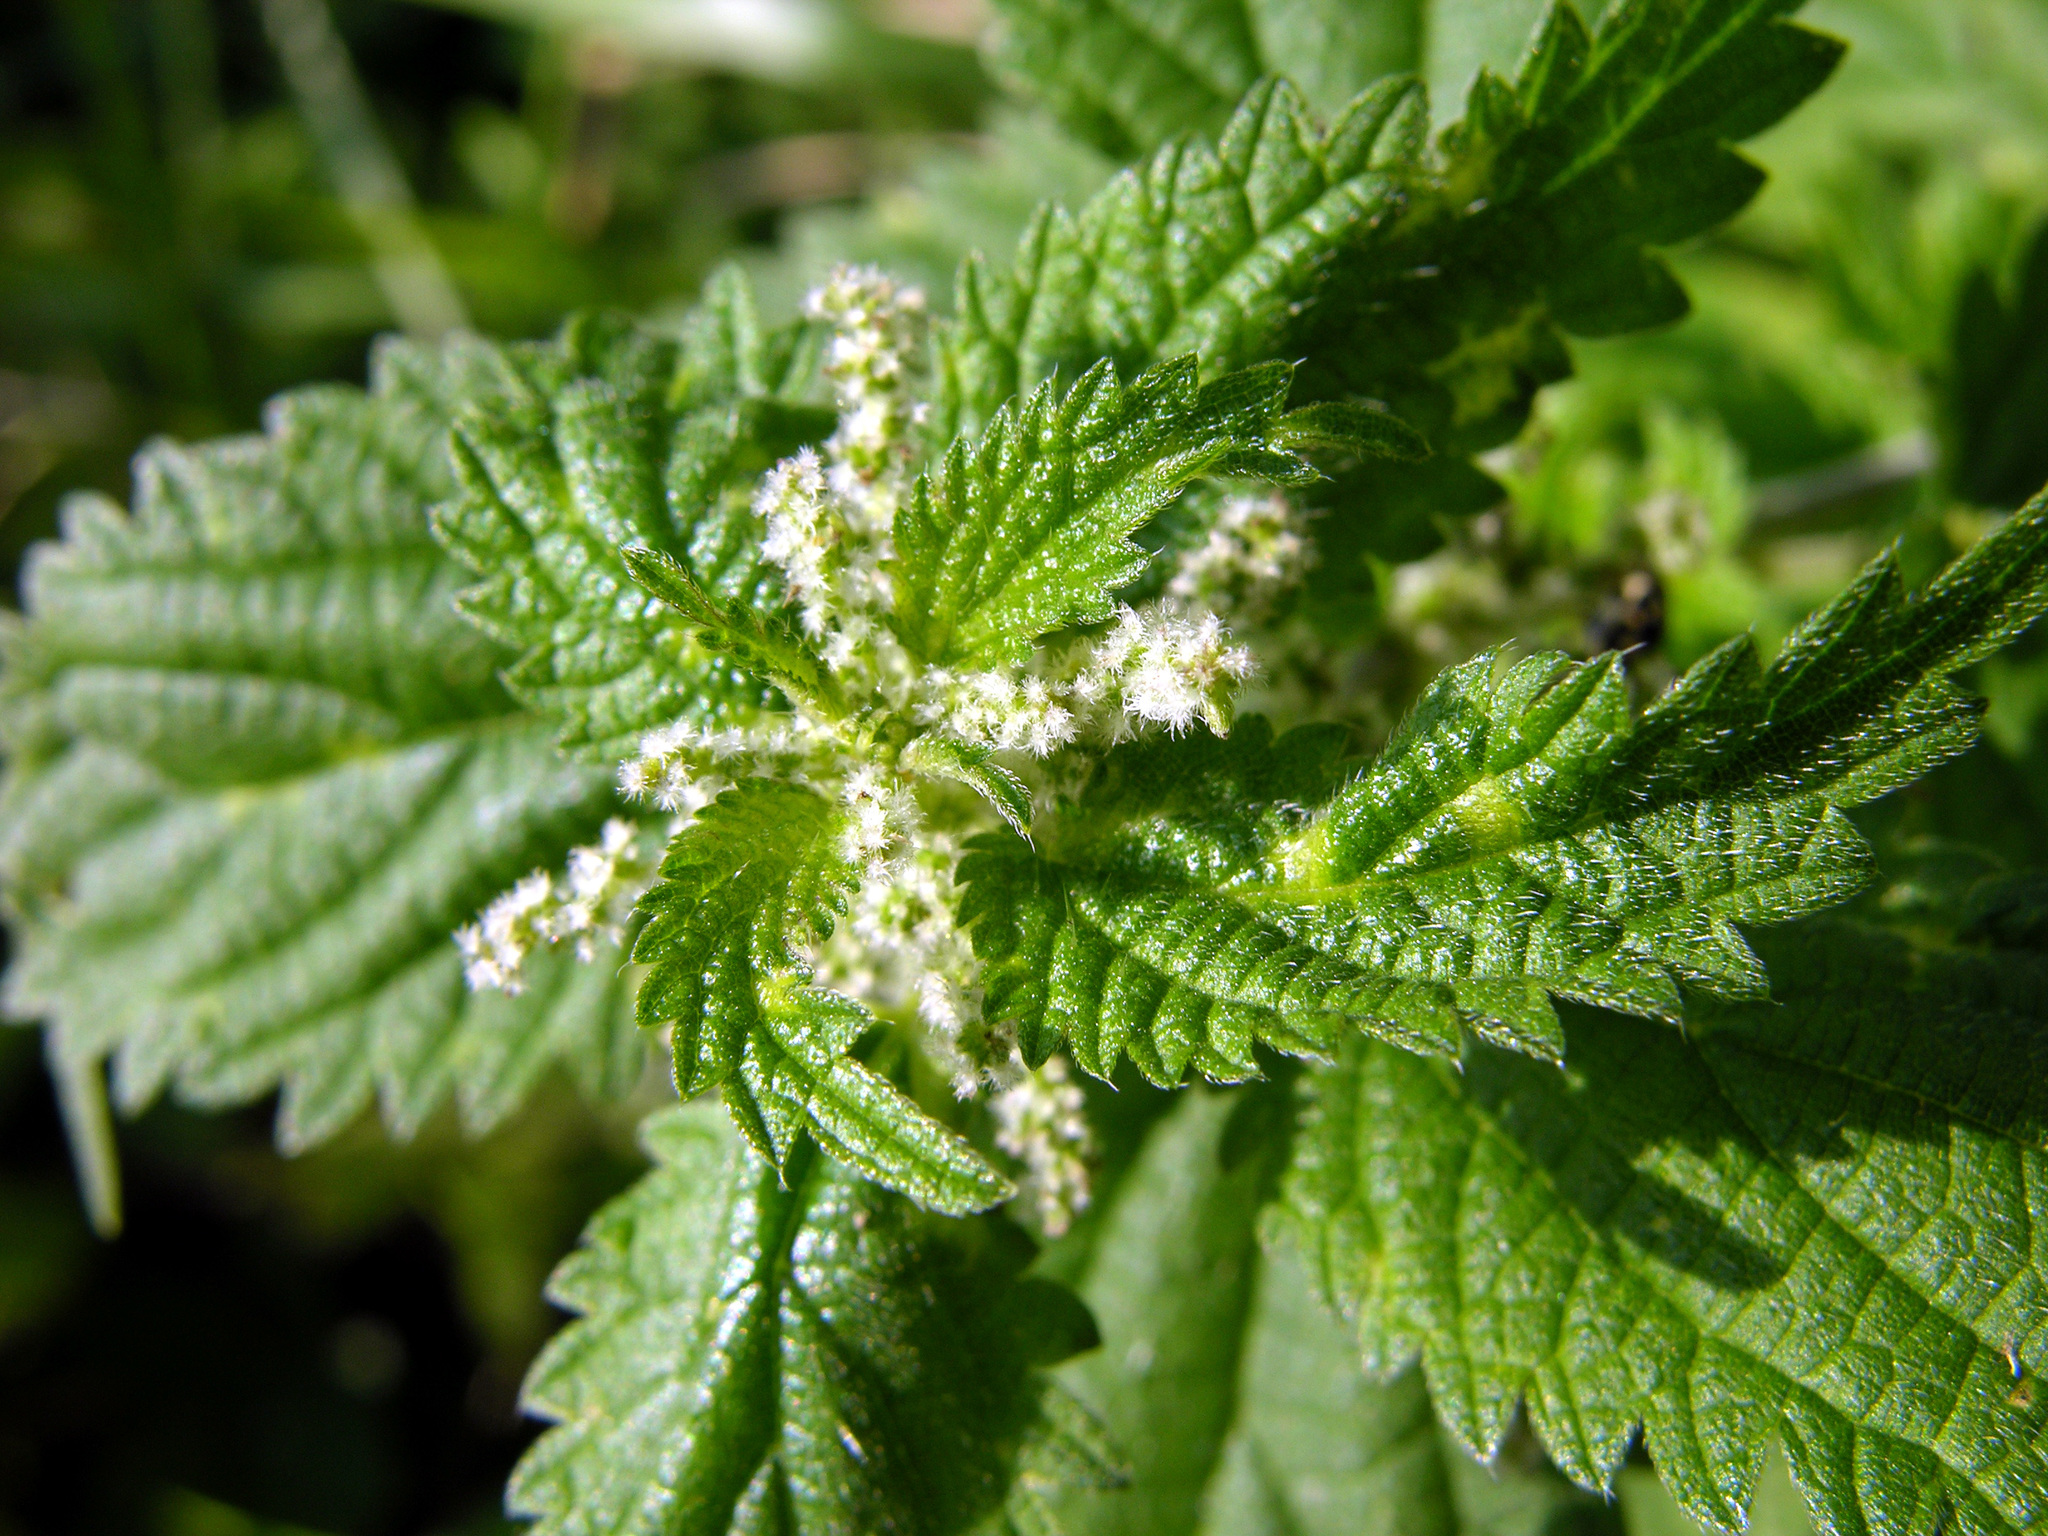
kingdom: Plantae
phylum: Tracheophyta
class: Magnoliopsida
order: Rosales
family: Urticaceae
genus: Urtica
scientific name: Urtica dioica
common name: Common nettle
